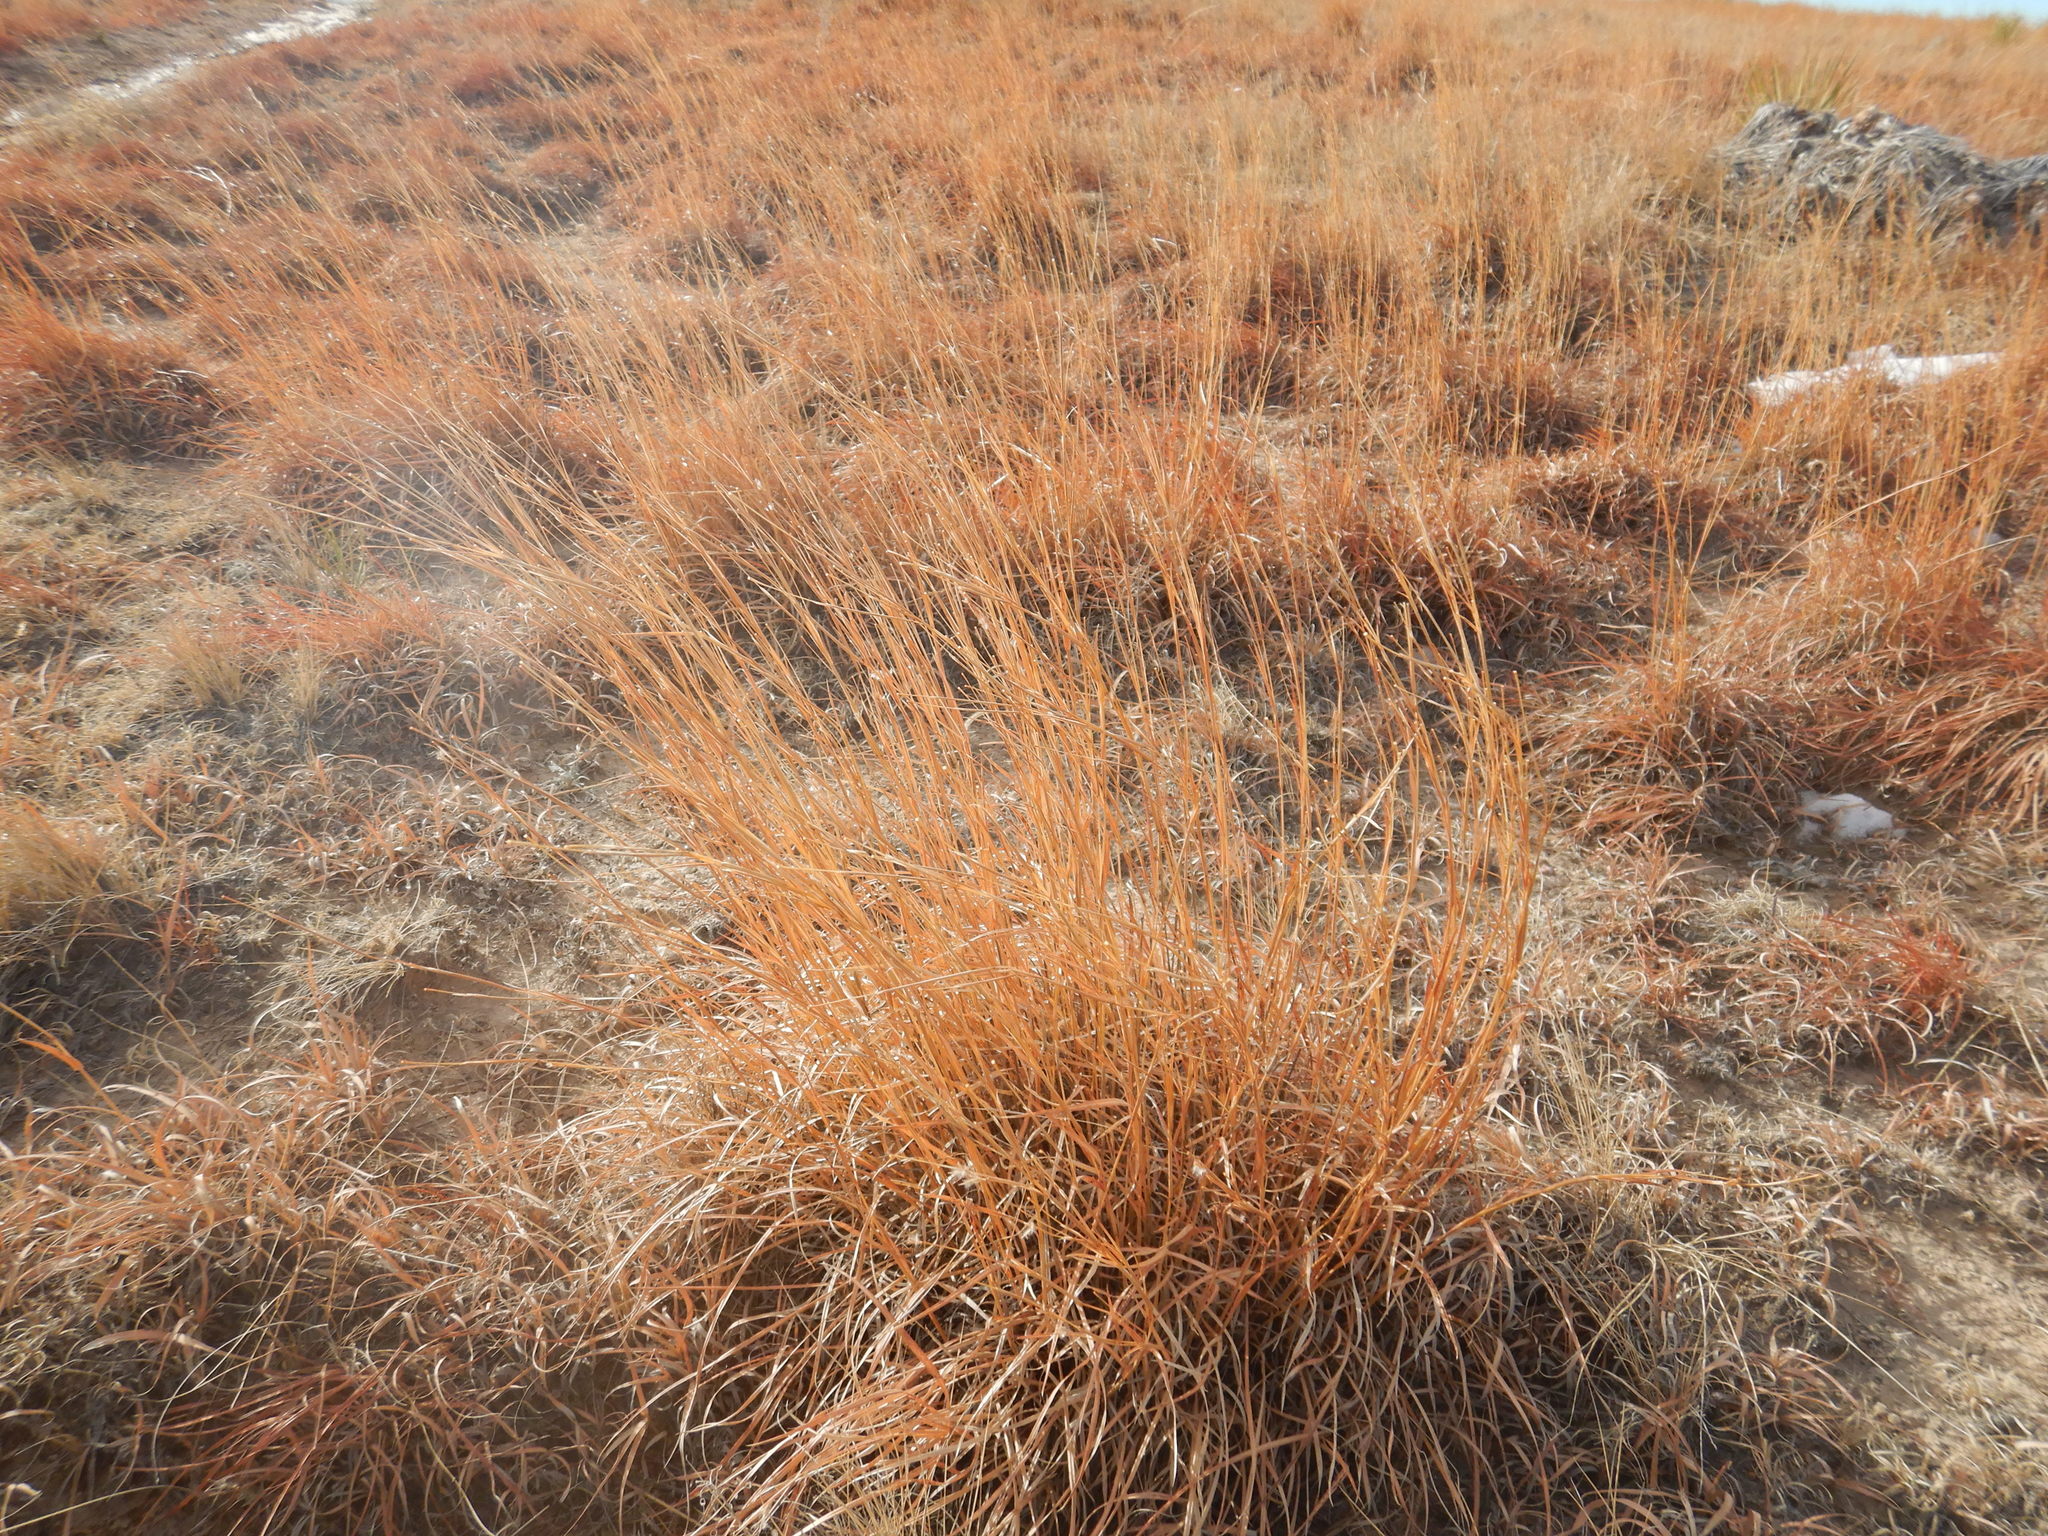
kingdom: Plantae
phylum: Tracheophyta
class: Liliopsida
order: Poales
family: Poaceae
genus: Schizachyrium
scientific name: Schizachyrium scoparium
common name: Little bluestem
